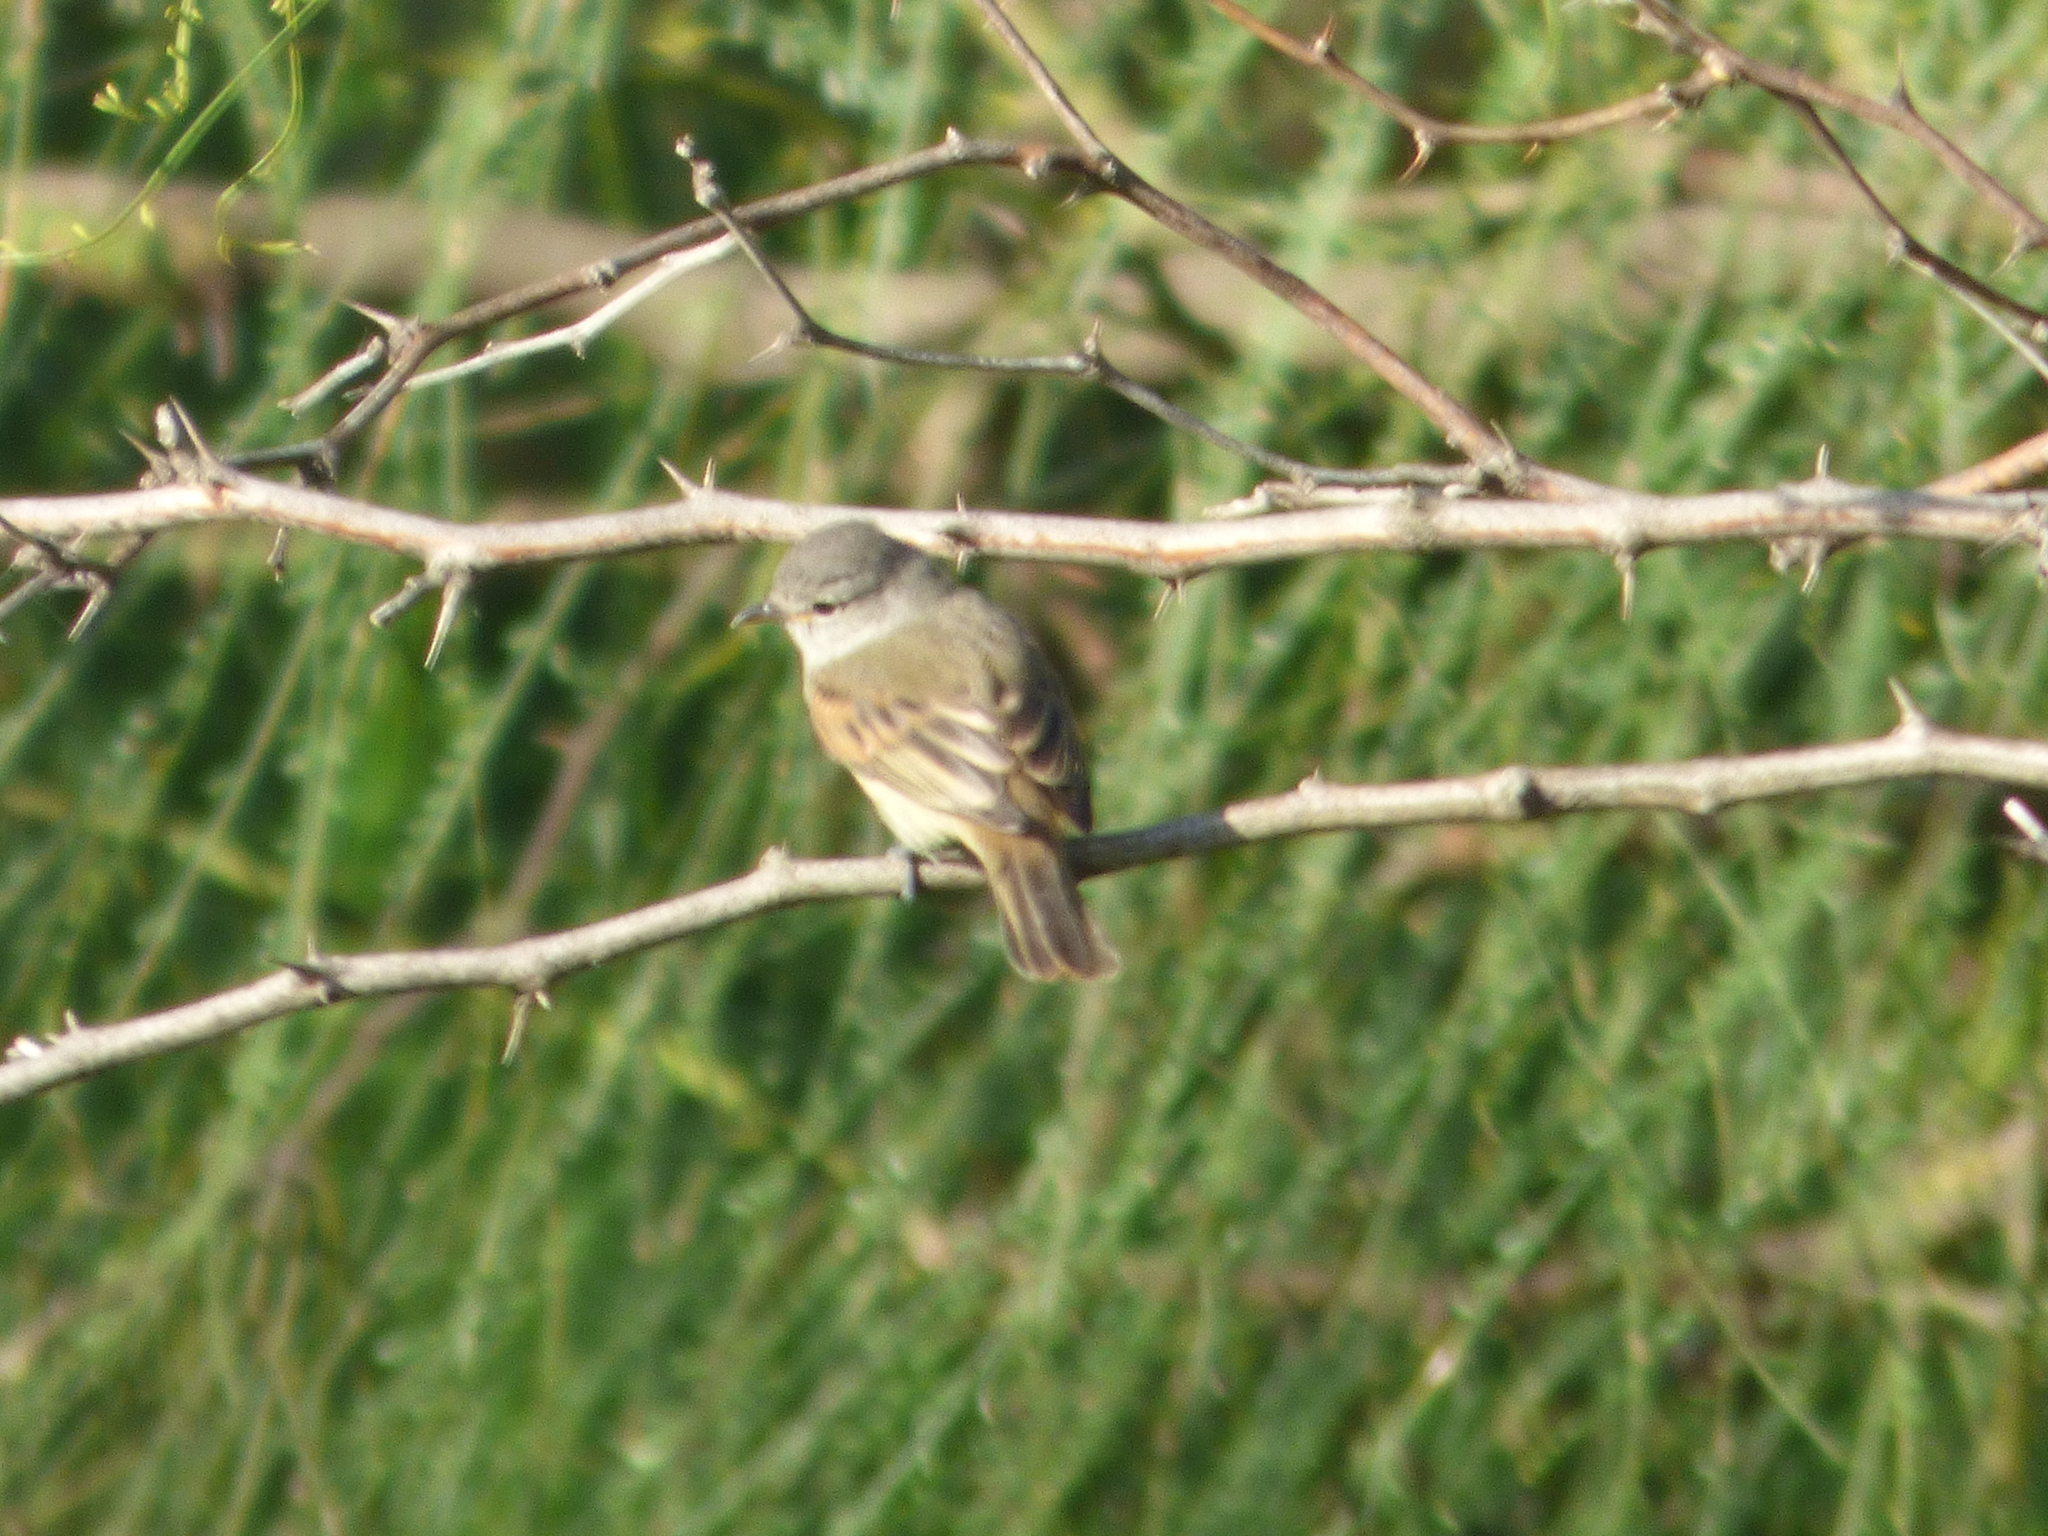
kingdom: Animalia
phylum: Chordata
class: Aves
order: Passeriformes
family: Tyrannidae
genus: Camptostoma
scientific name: Camptostoma obsoletum
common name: Southern beardless-tyrannulet
